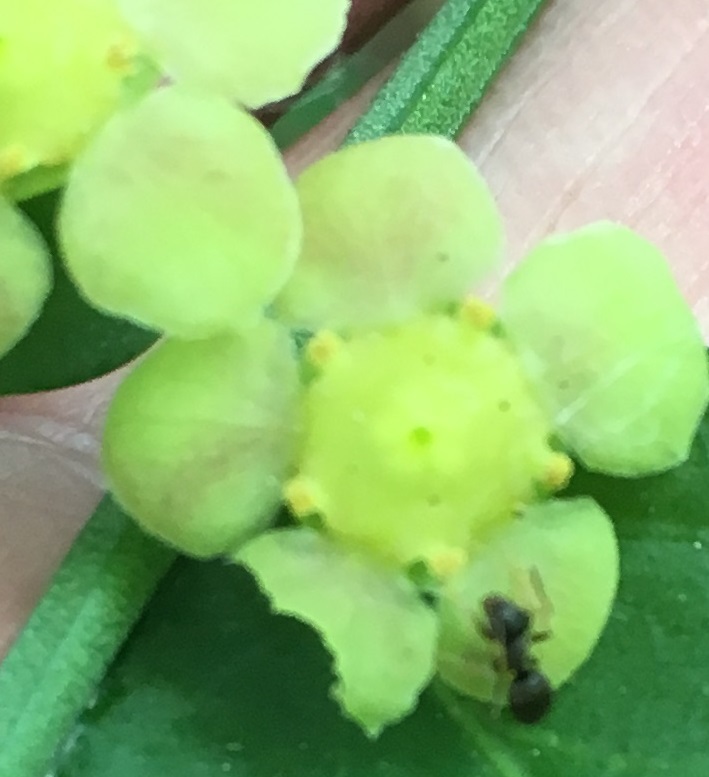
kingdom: Animalia
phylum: Arthropoda
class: Insecta
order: Hymenoptera
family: Formicidae
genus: Lasius
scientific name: Lasius
